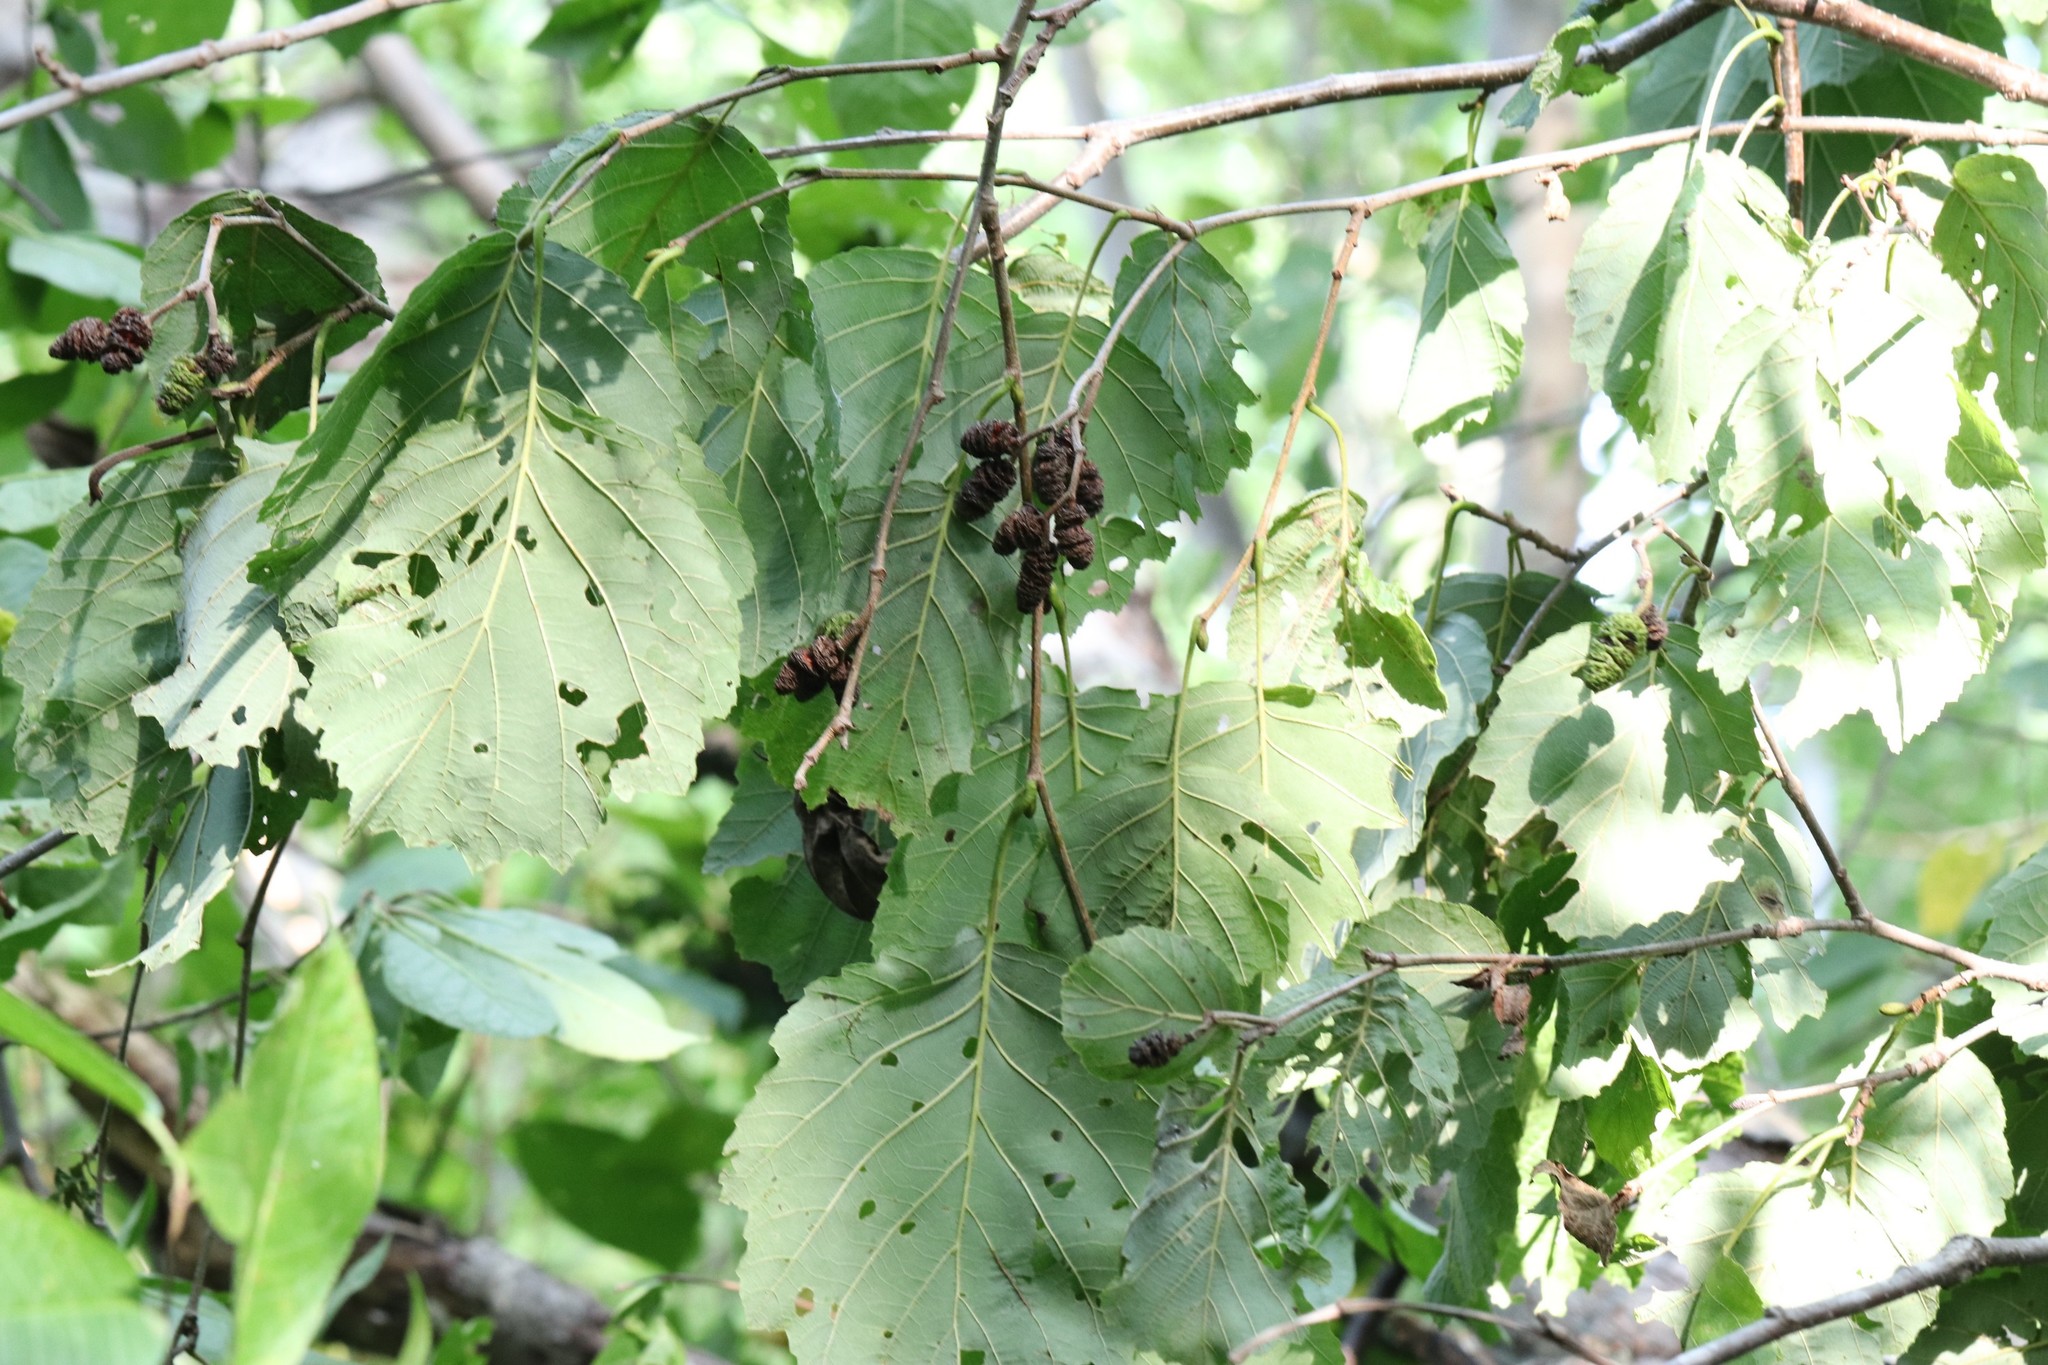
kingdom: Plantae
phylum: Tracheophyta
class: Magnoliopsida
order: Fagales
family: Betulaceae
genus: Alnus
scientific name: Alnus hirsuta
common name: Manchurian alder
